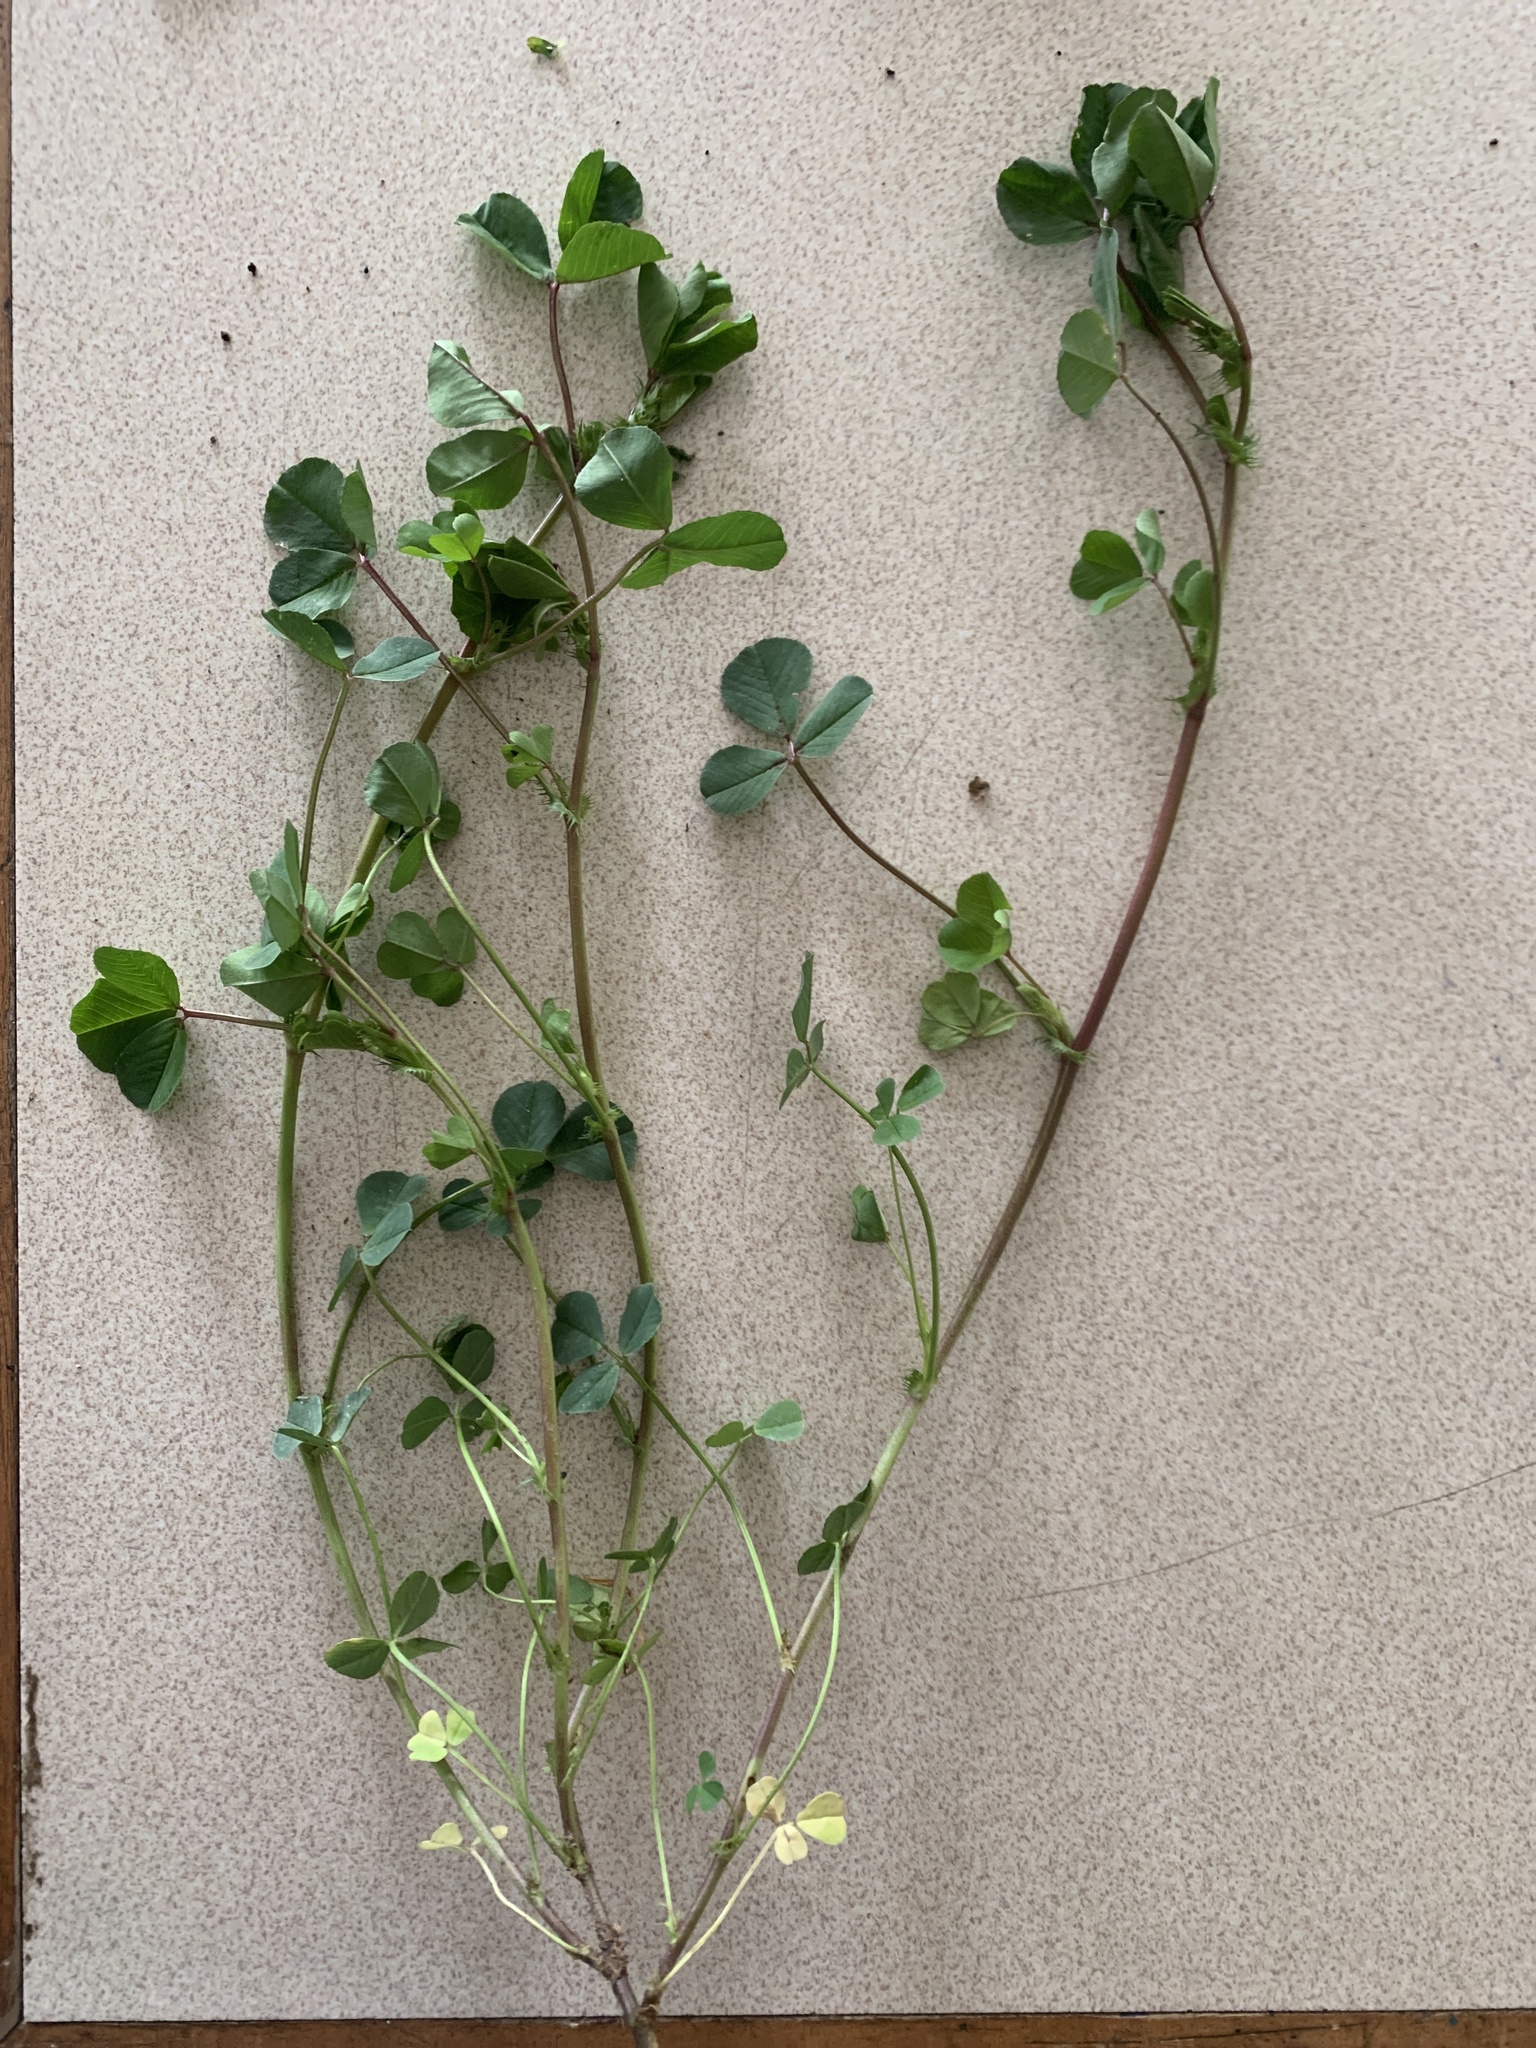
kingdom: Plantae
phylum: Tracheophyta
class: Magnoliopsida
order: Fabales
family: Fabaceae
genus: Medicago
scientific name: Medicago polymorpha
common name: Burclover
